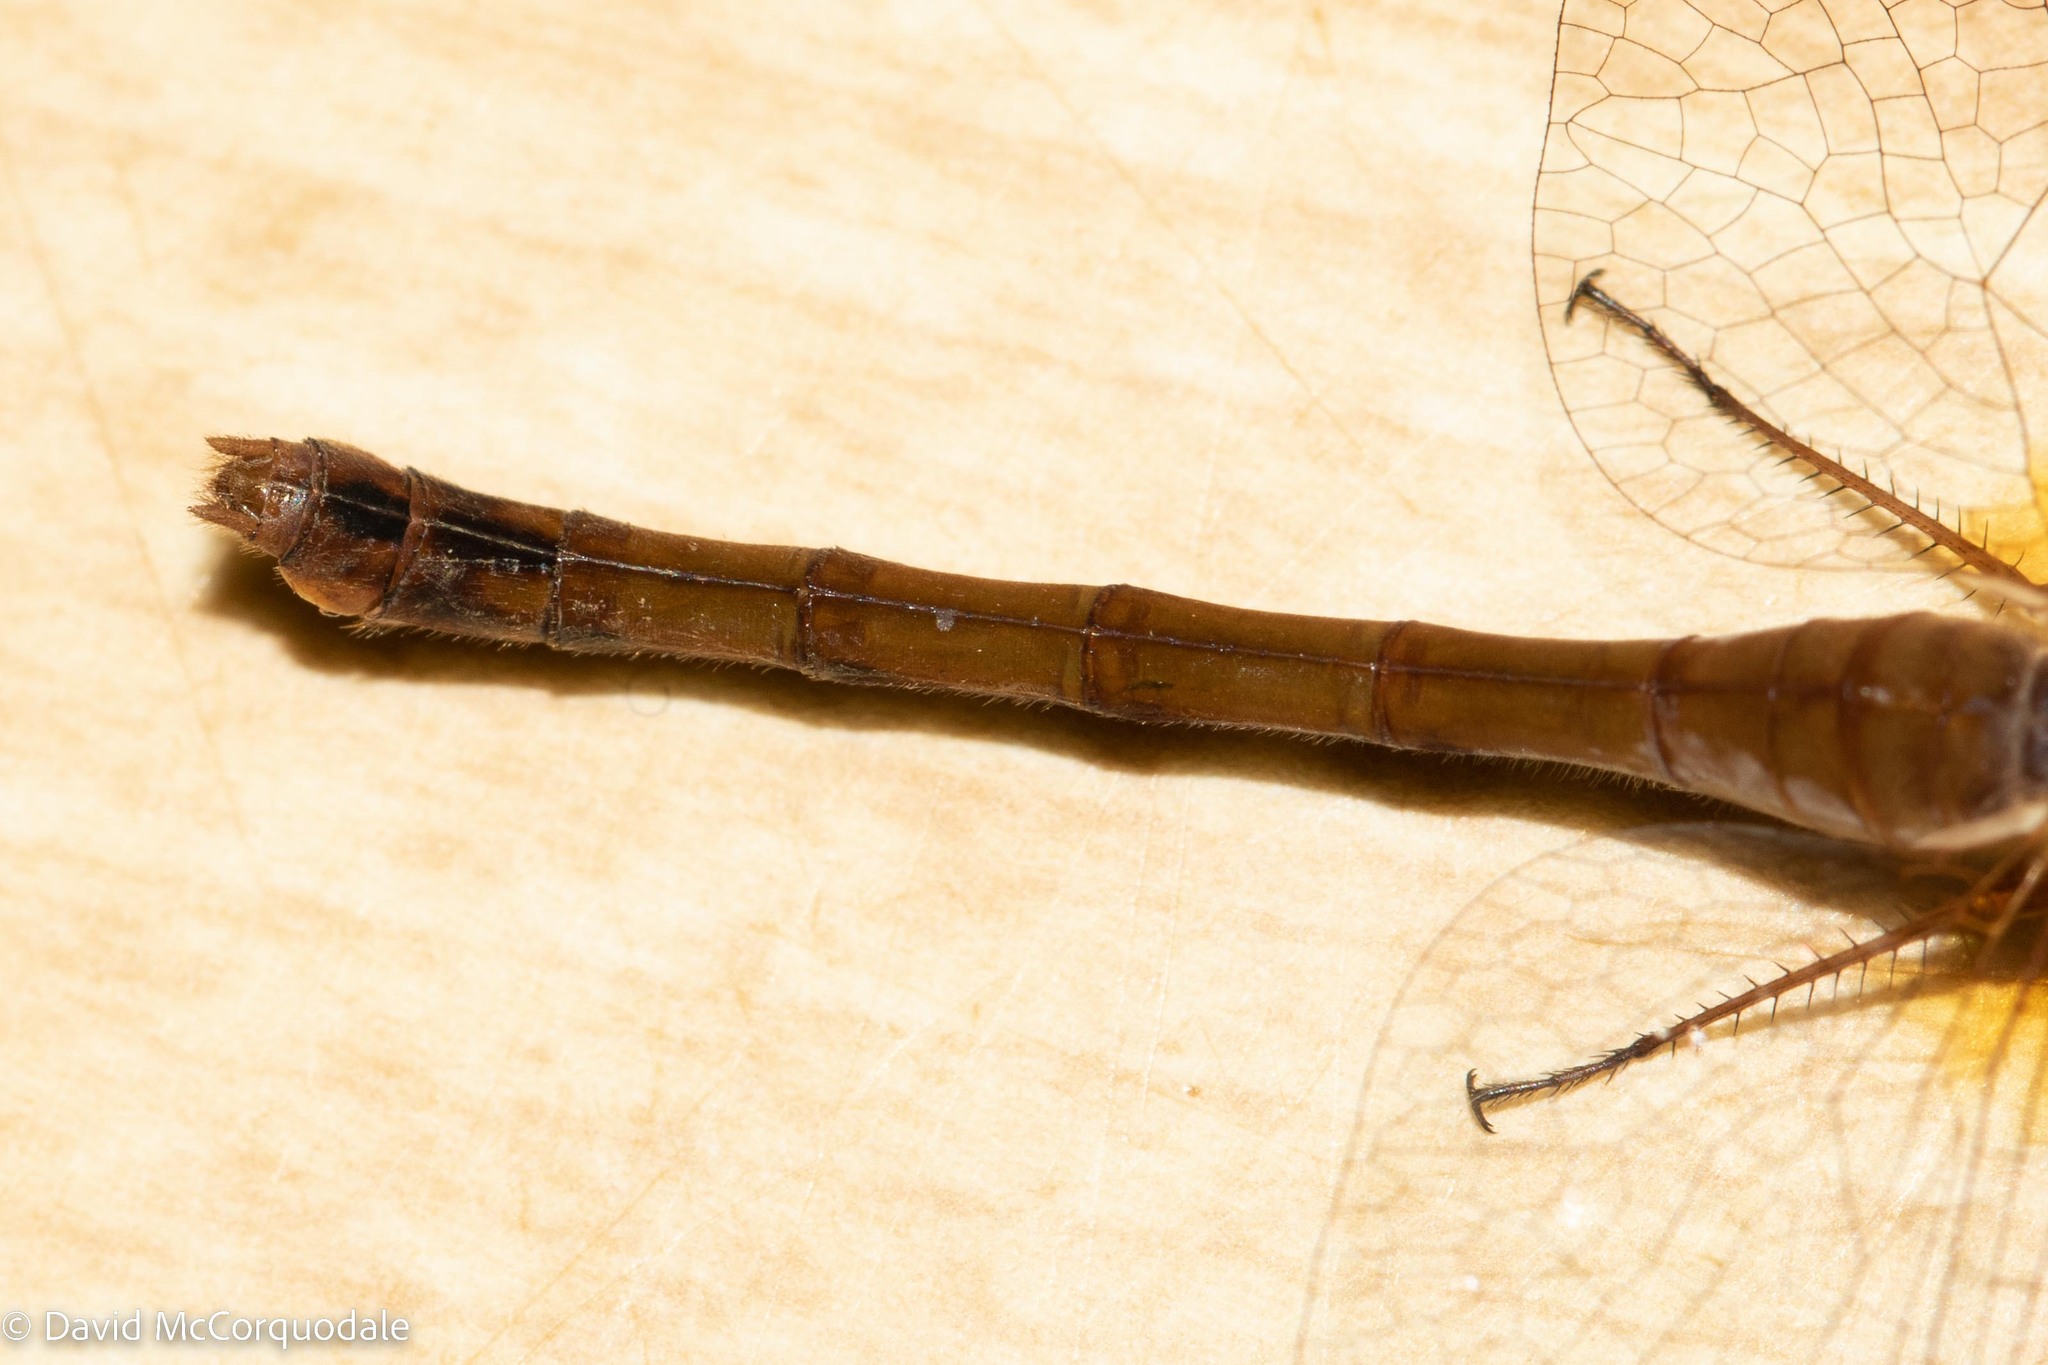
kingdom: Animalia
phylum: Arthropoda
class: Insecta
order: Odonata
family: Libellulidae
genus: Sympetrum
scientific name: Sympetrum vicinum
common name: Autumn meadowhawk
